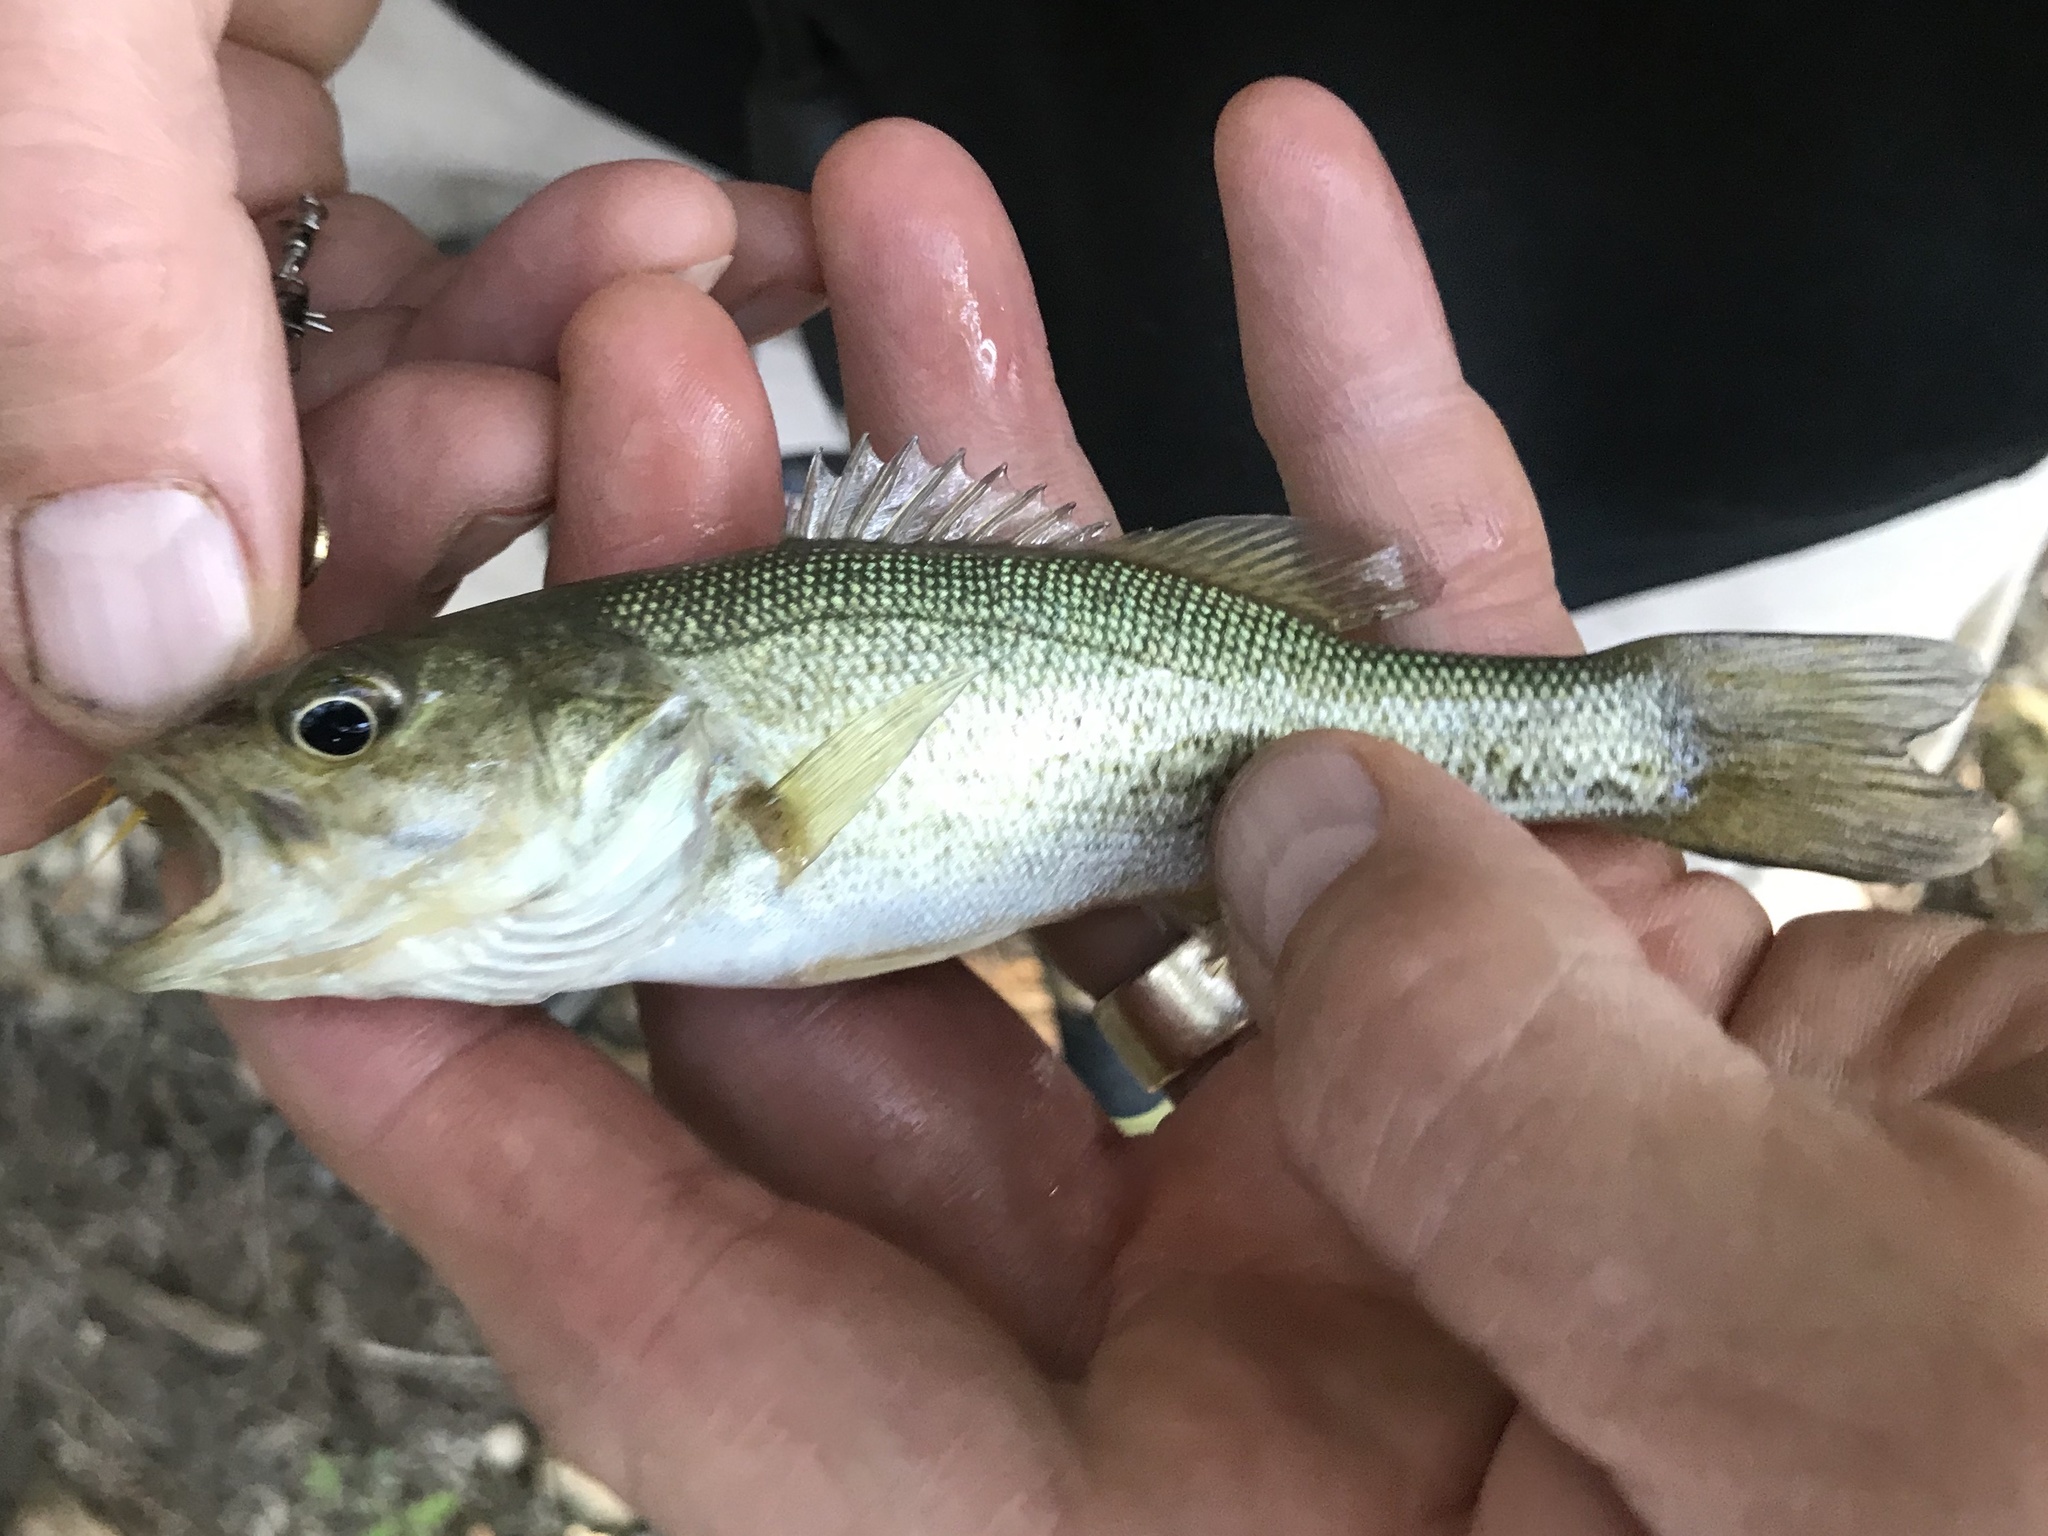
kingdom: Animalia
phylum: Chordata
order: Perciformes
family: Centrarchidae
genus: Micropterus
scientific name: Micropterus
